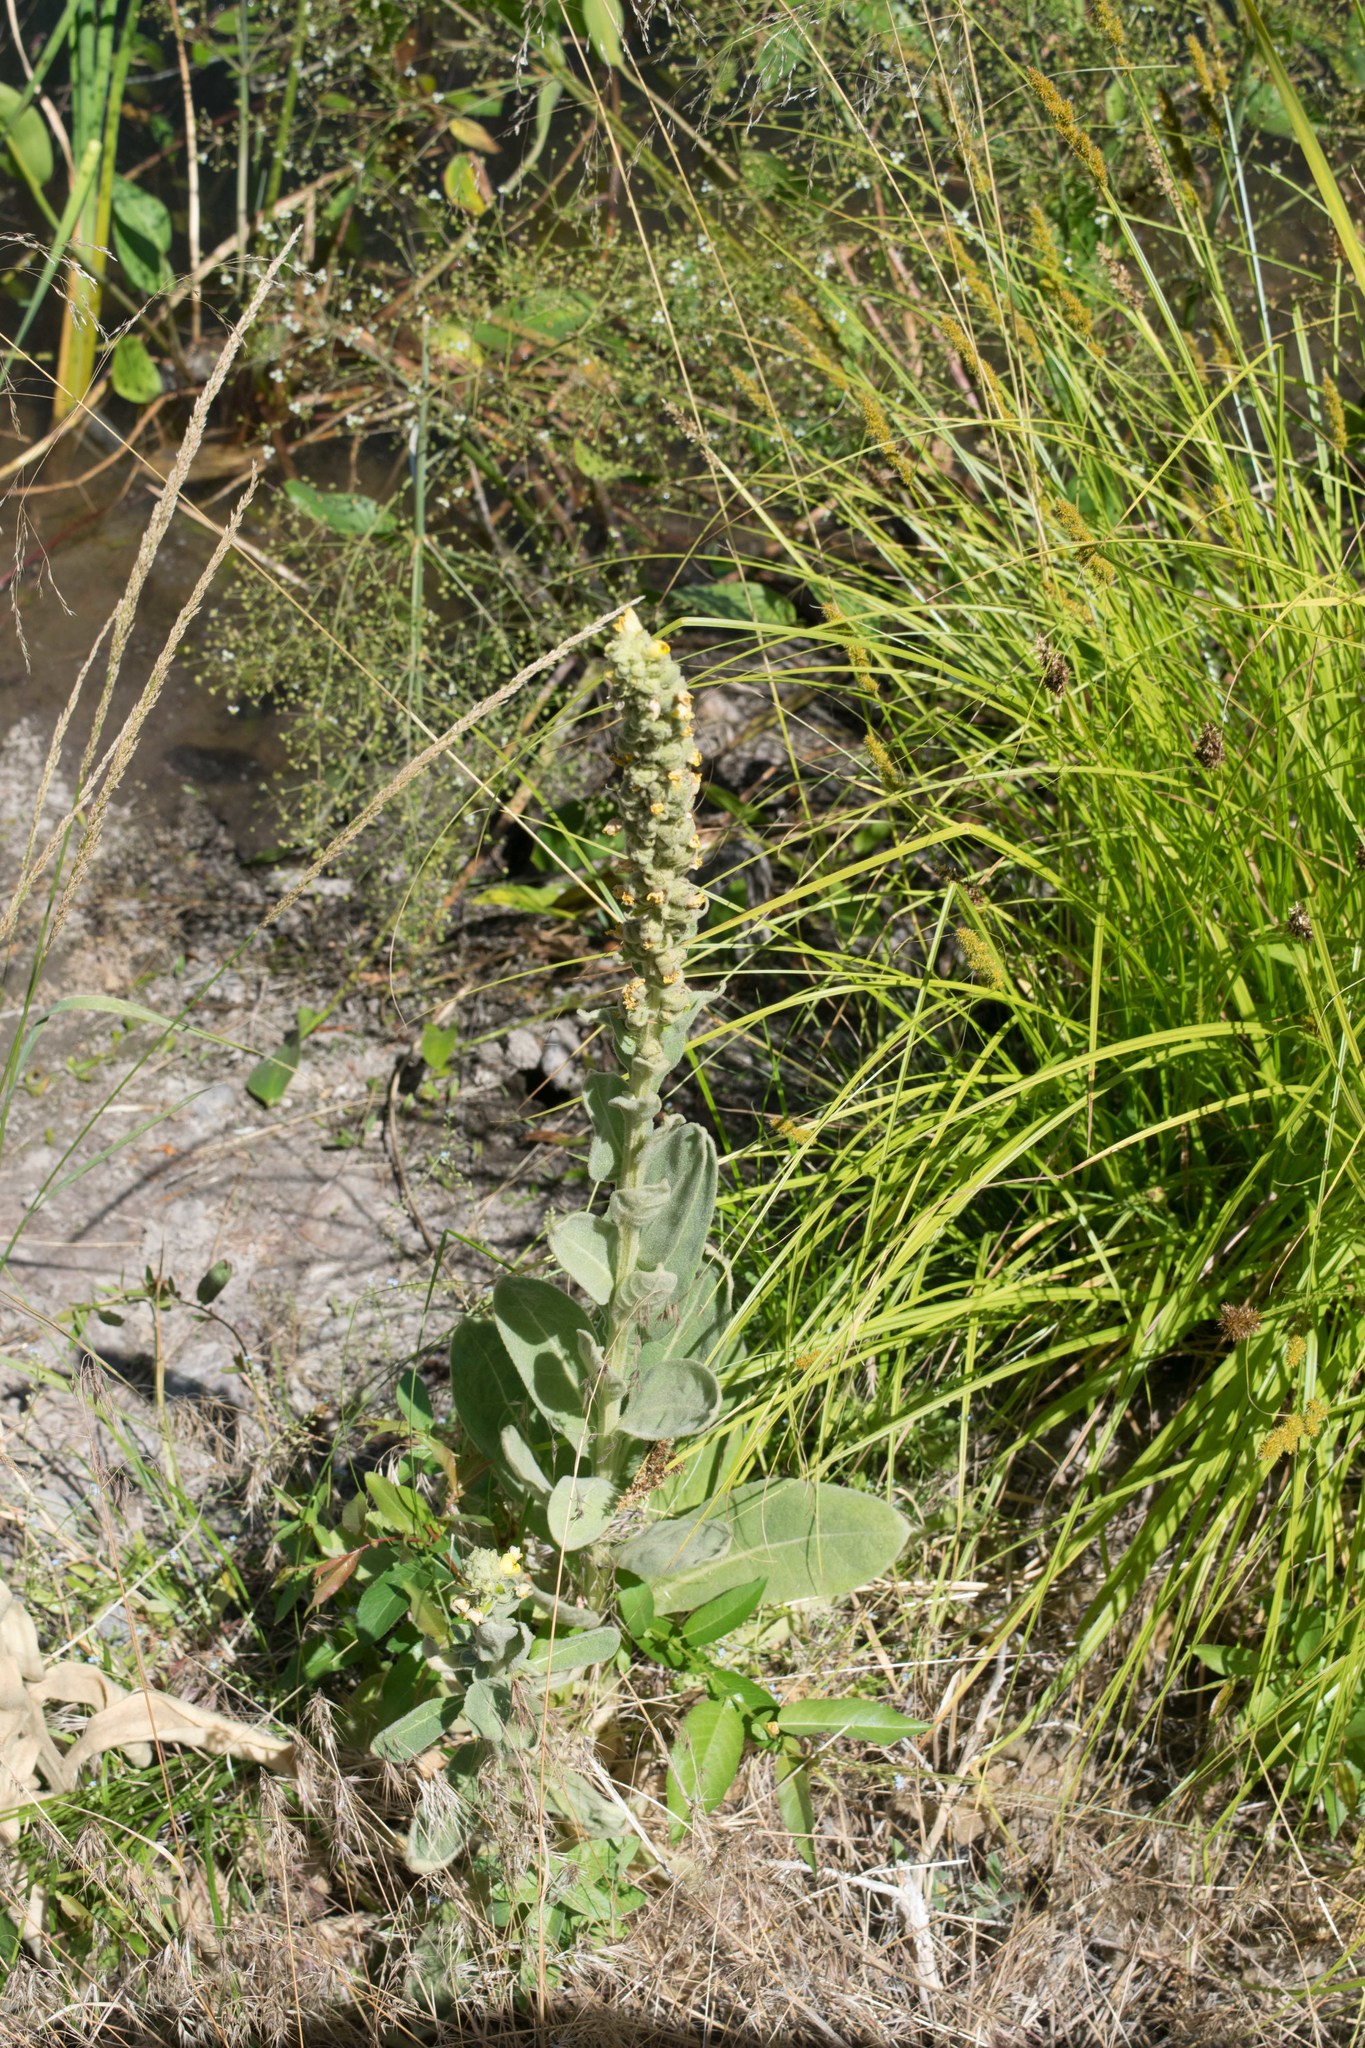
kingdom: Plantae
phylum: Tracheophyta
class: Magnoliopsida
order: Lamiales
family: Scrophulariaceae
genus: Verbascum
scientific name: Verbascum thapsus
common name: Common mullein
